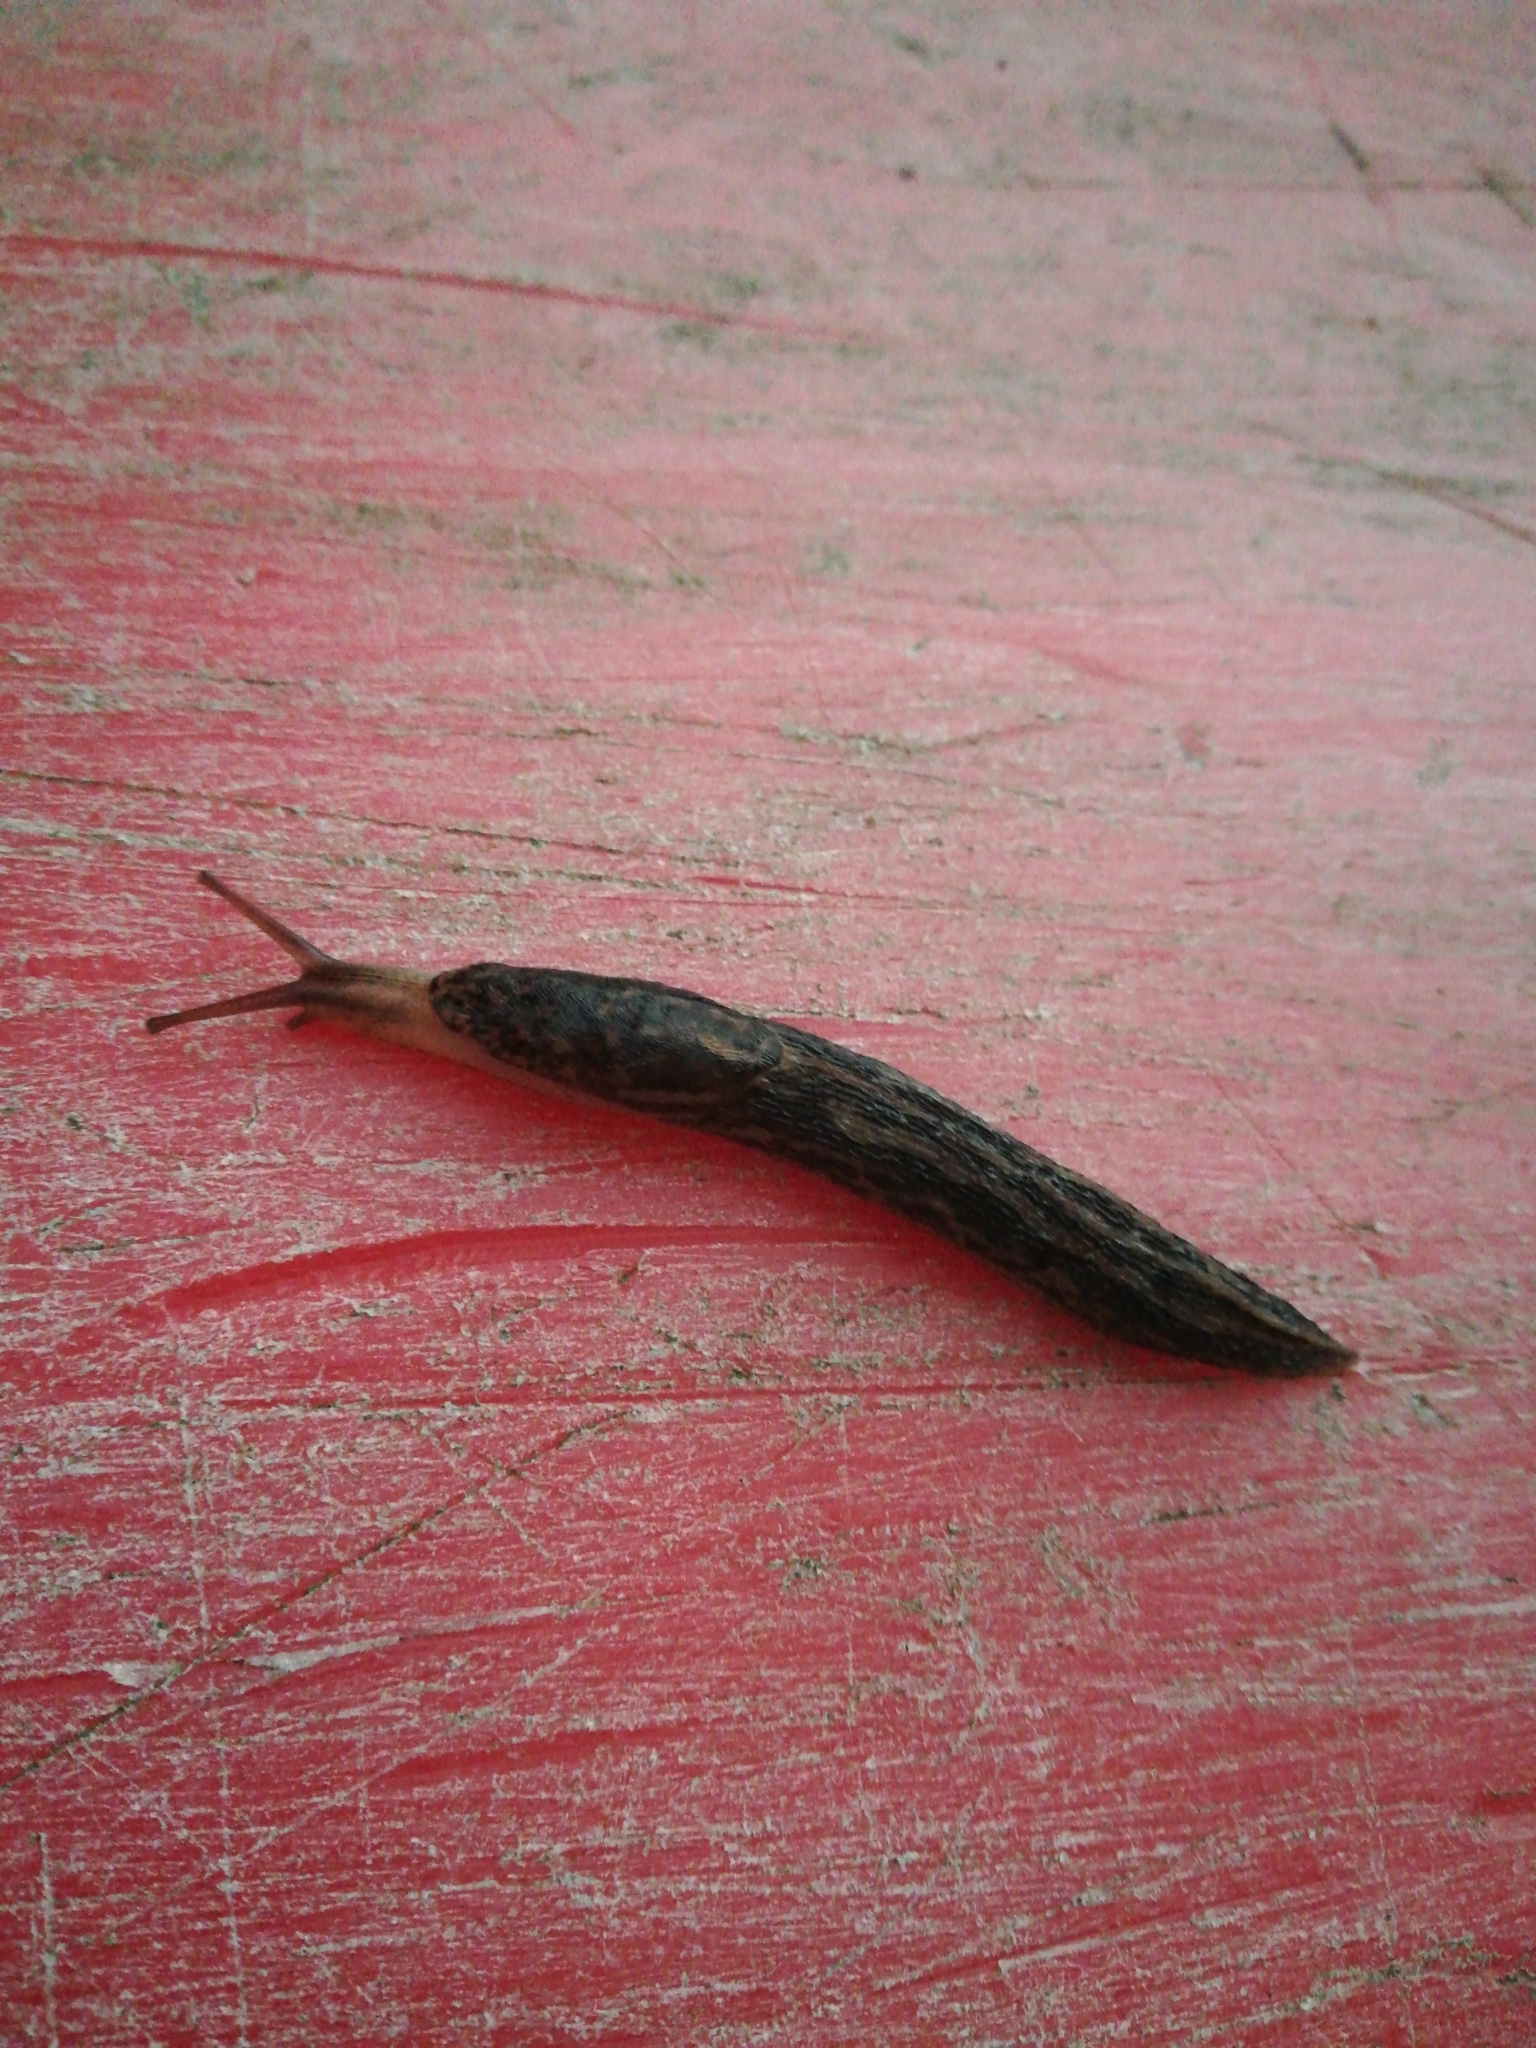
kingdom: Animalia
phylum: Mollusca
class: Gastropoda
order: Stylommatophora
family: Limacidae
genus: Limax
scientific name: Limax maximus
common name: Great grey slug
